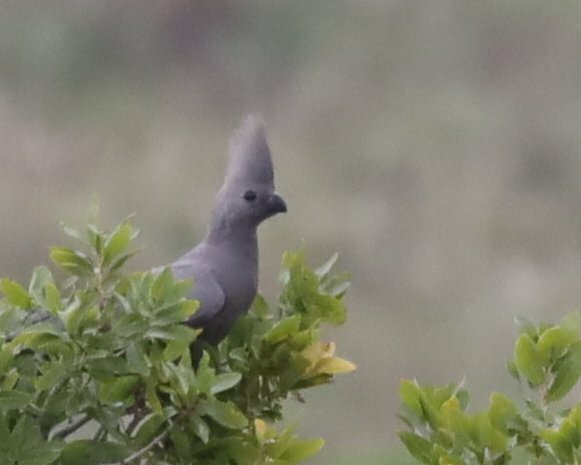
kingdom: Animalia
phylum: Chordata
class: Aves
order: Musophagiformes
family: Musophagidae
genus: Corythaixoides
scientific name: Corythaixoides concolor
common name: Grey go-away-bird
